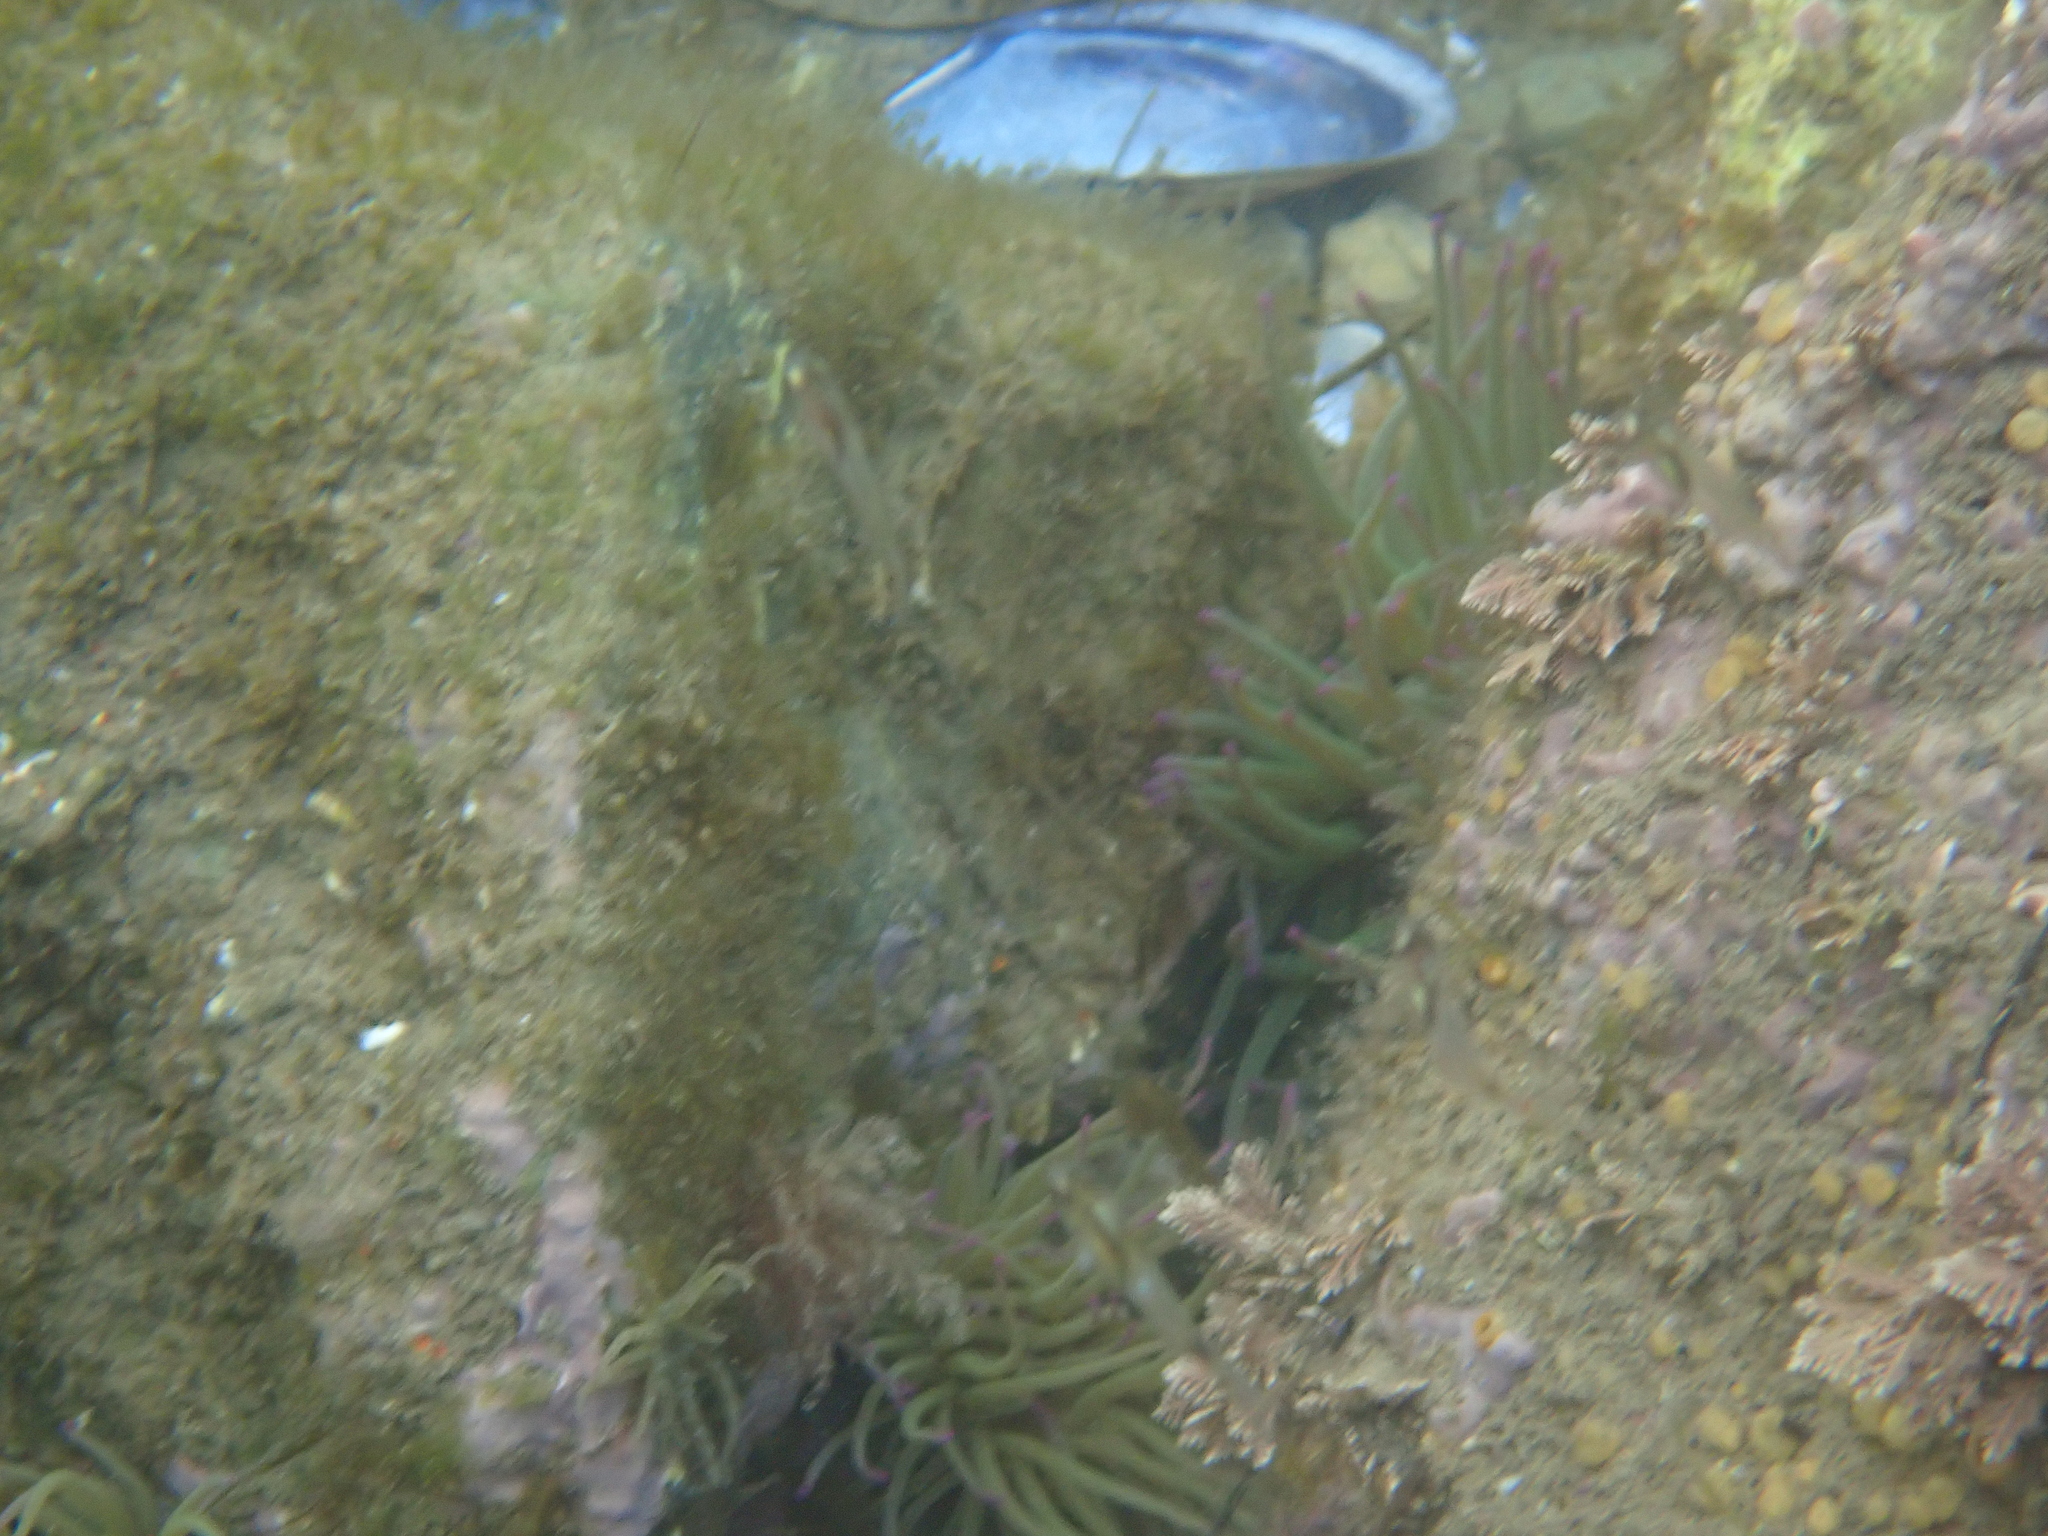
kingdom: Animalia
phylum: Cnidaria
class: Anthozoa
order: Actiniaria
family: Actiniidae
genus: Anemonia
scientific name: Anemonia viridis
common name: Snakelocks anemone
